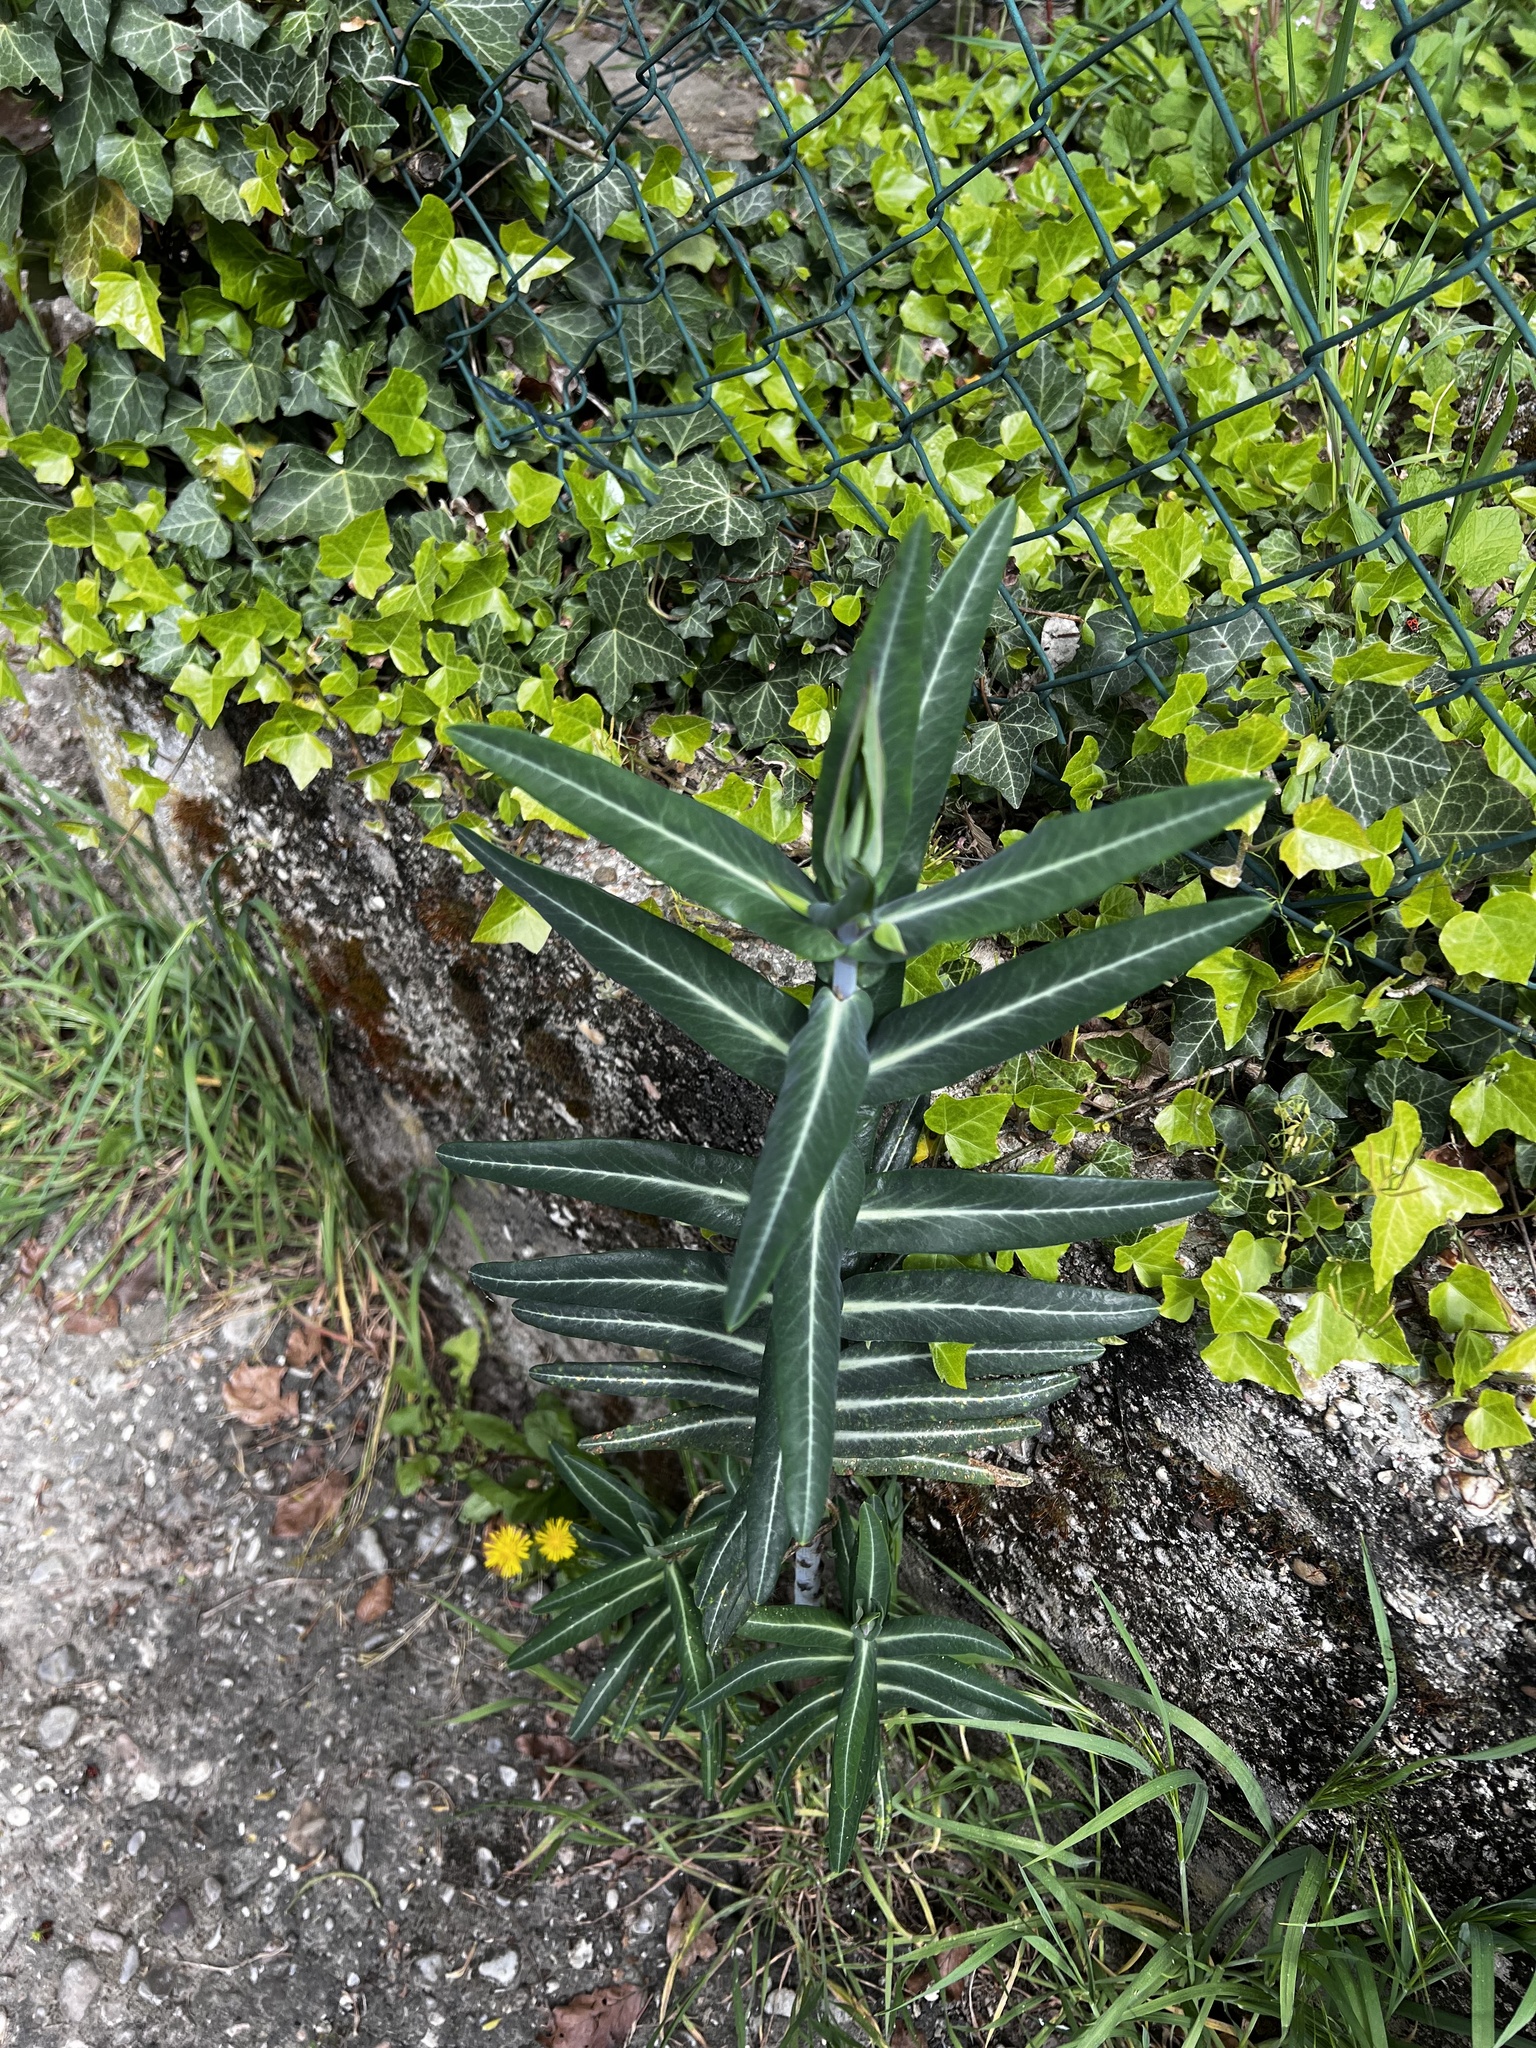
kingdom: Plantae
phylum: Tracheophyta
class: Magnoliopsida
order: Malpighiales
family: Euphorbiaceae
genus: Euphorbia
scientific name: Euphorbia lathyris
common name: Caper spurge
